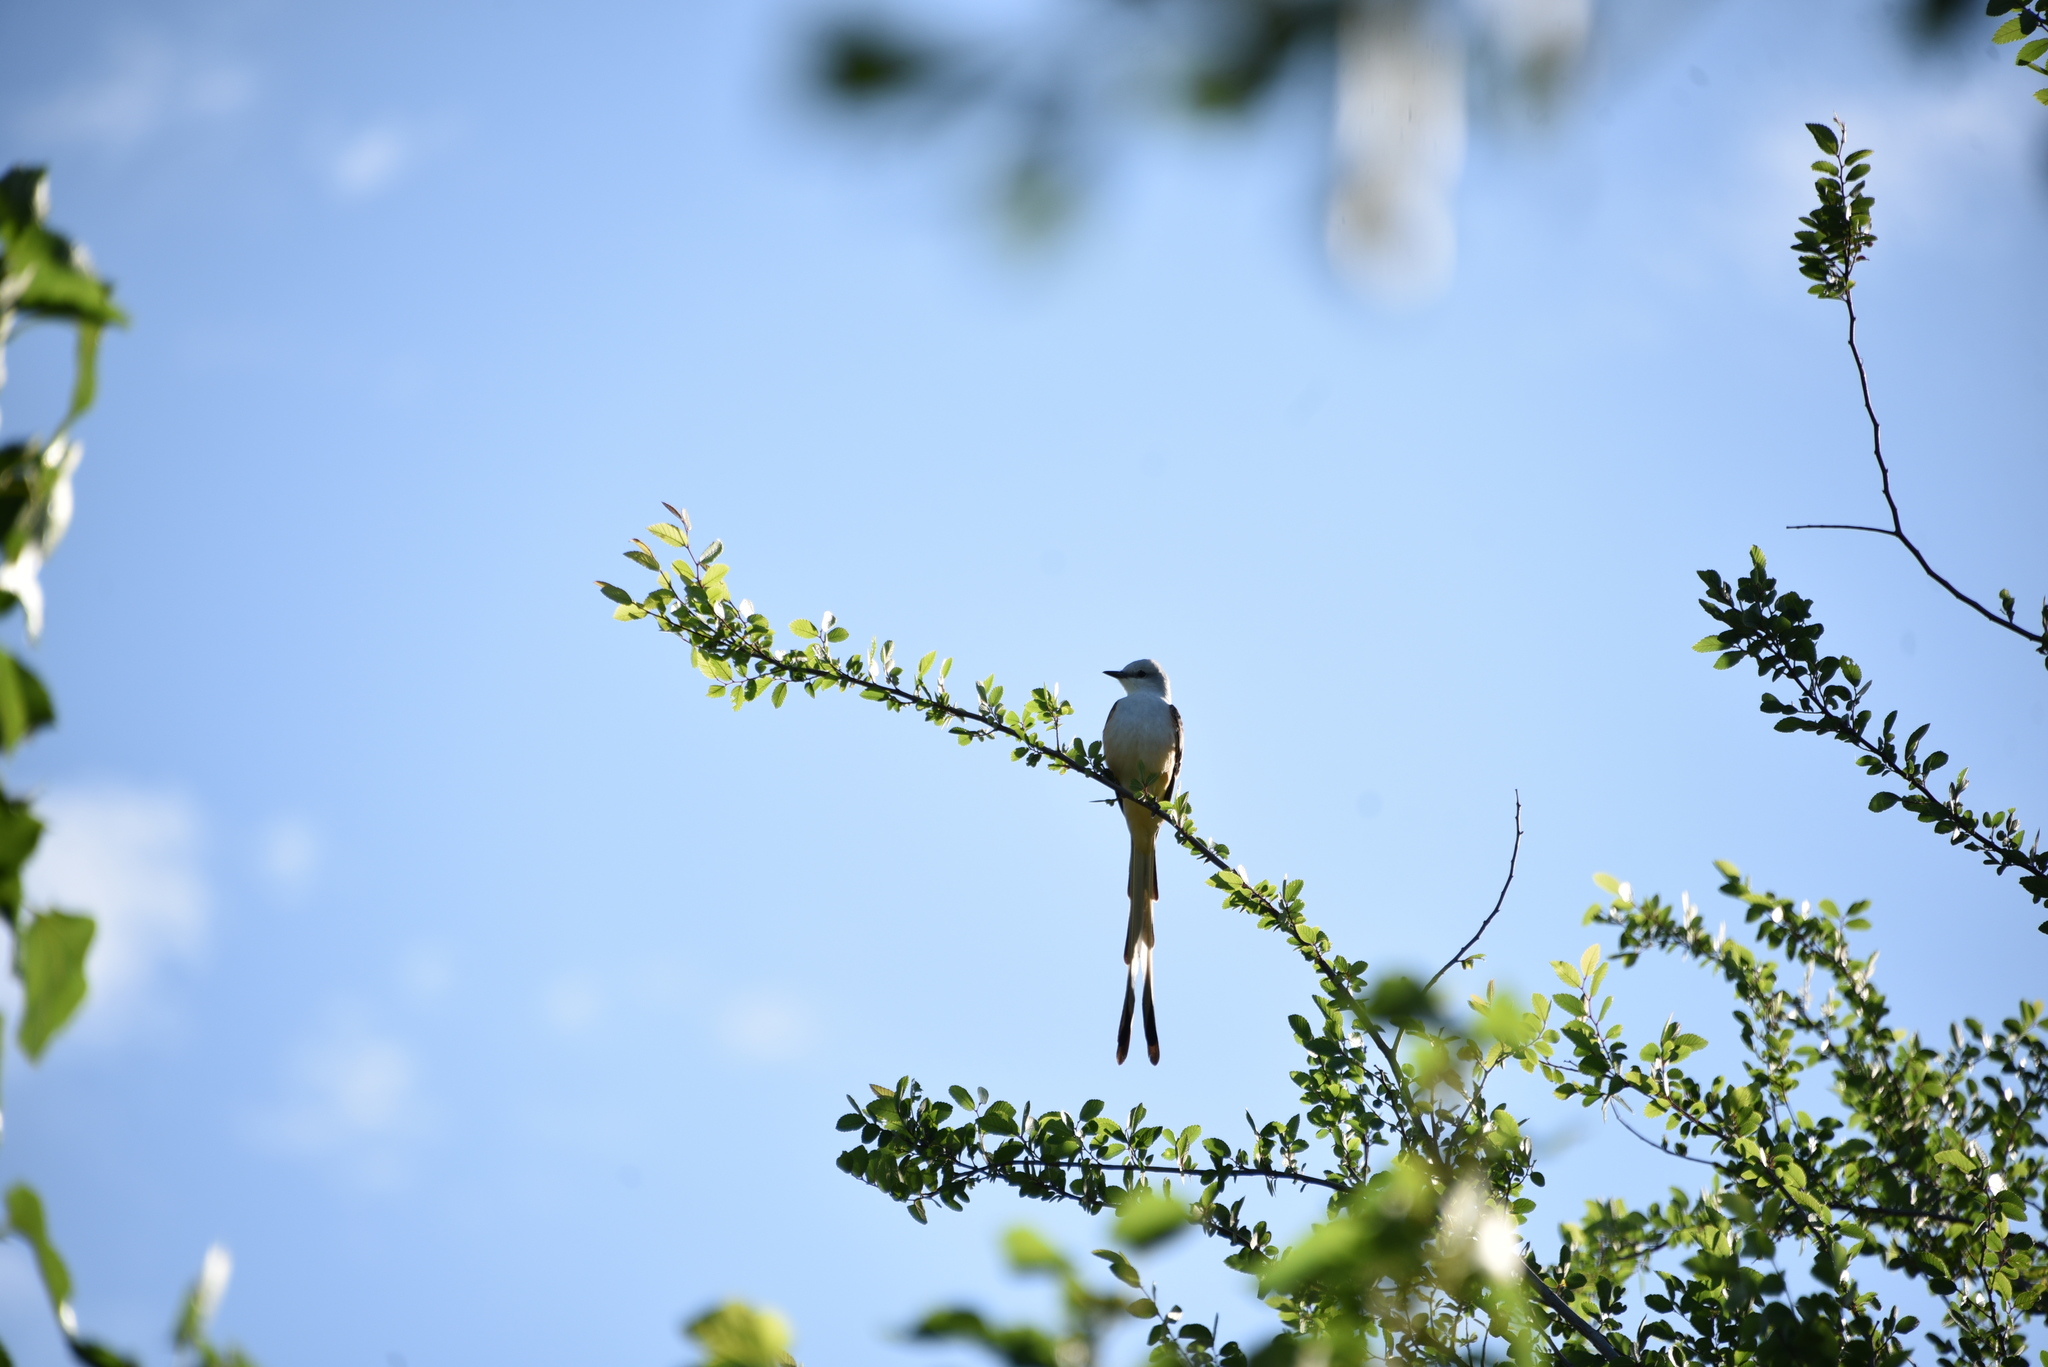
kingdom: Animalia
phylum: Chordata
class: Aves
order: Passeriformes
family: Tyrannidae
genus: Tyrannus
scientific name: Tyrannus forficatus
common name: Scissor-tailed flycatcher
